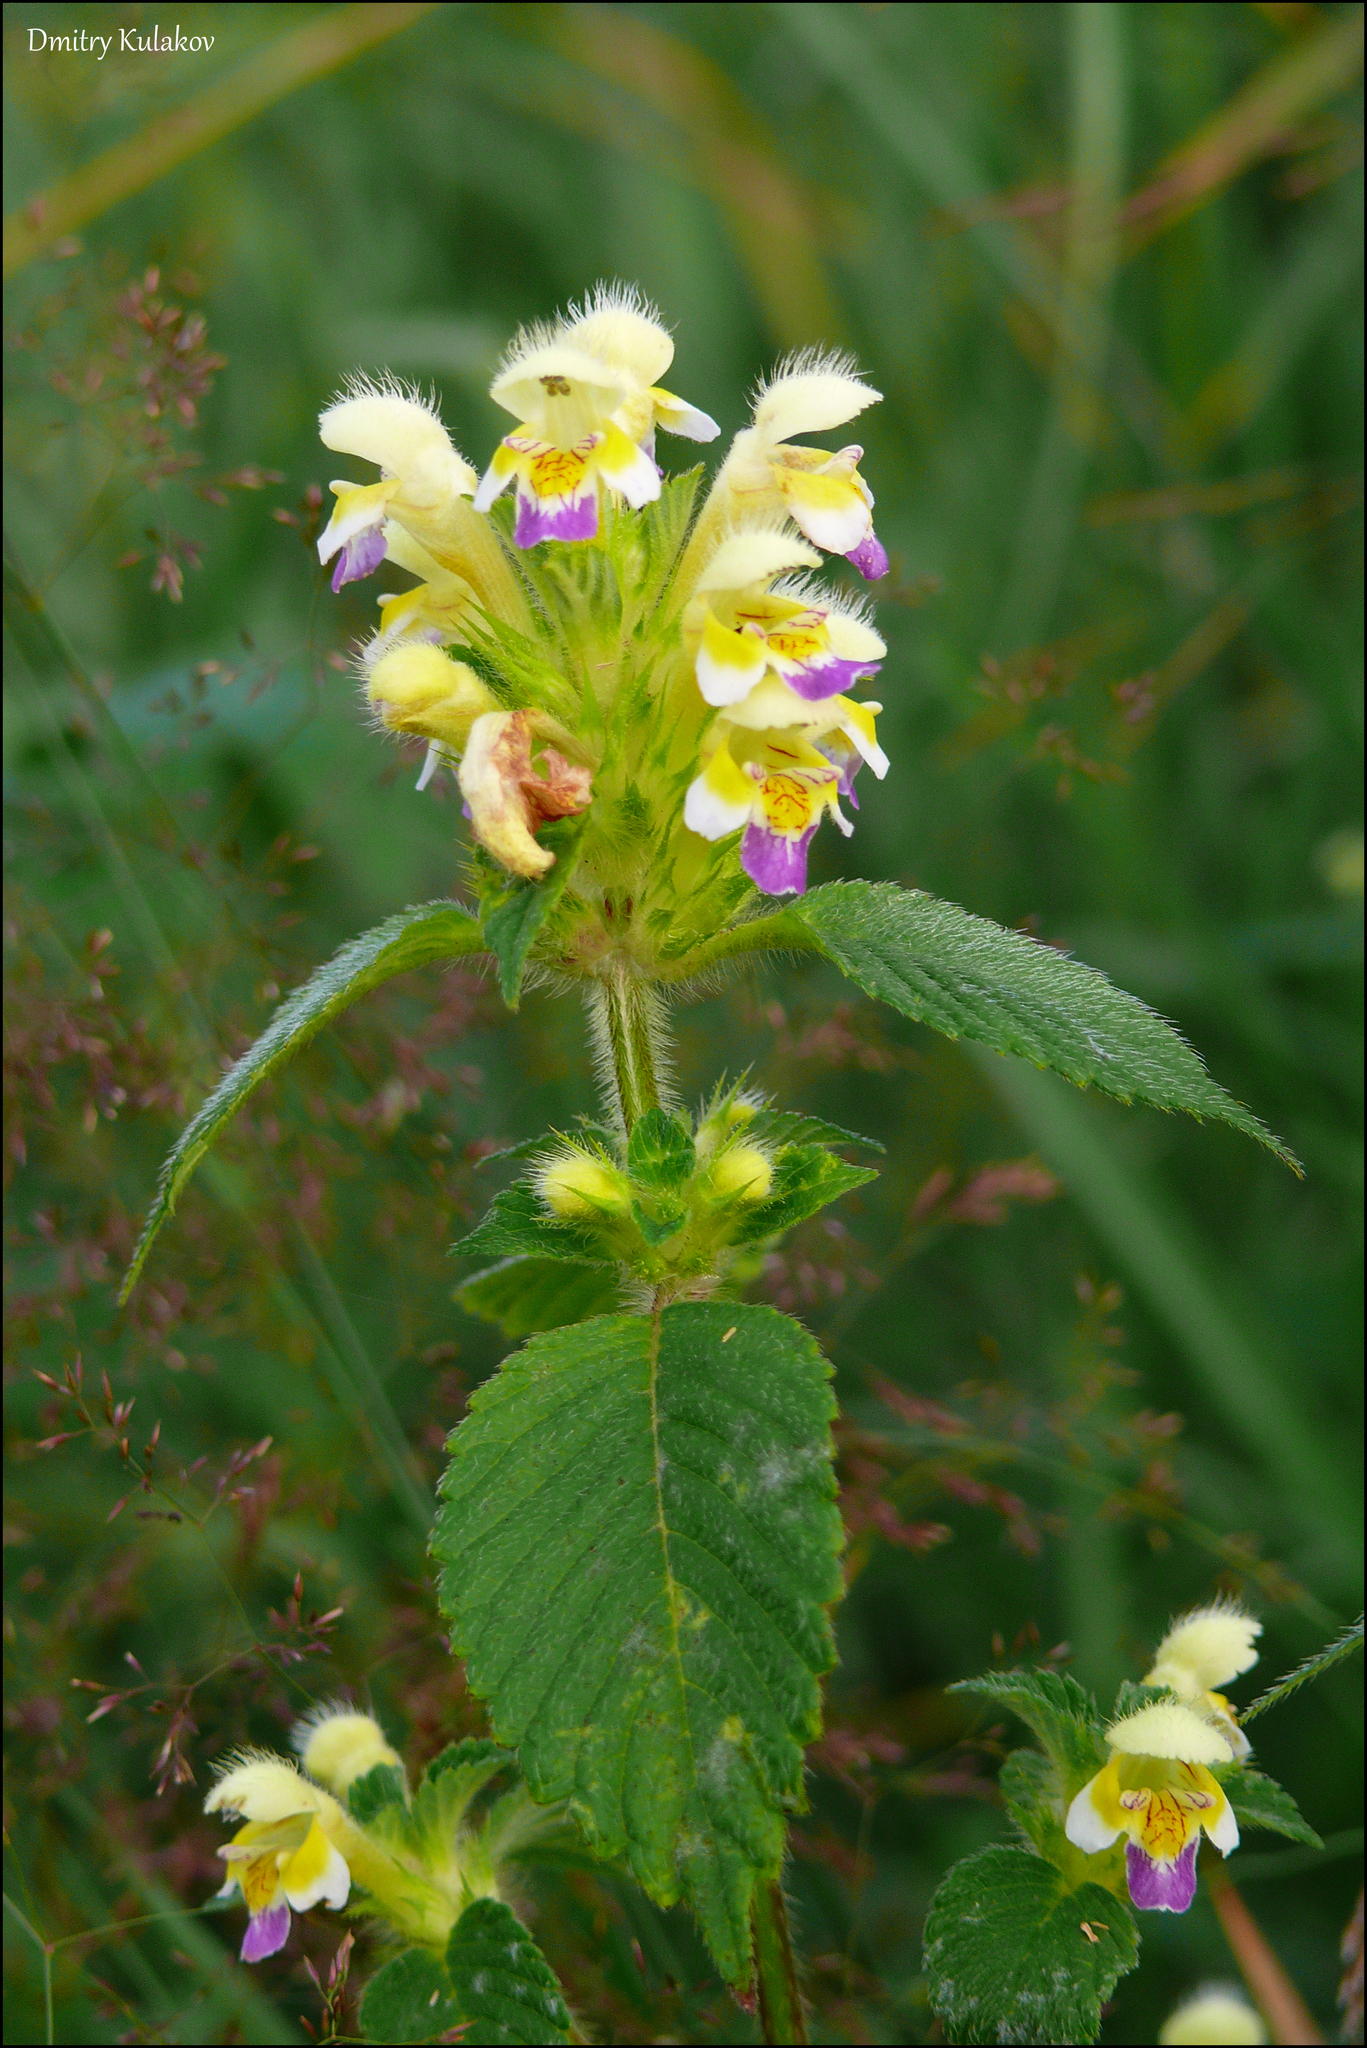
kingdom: Plantae
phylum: Tracheophyta
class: Magnoliopsida
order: Lamiales
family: Lamiaceae
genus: Galeopsis
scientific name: Galeopsis speciosa
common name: Large-flowered hemp-nettle
